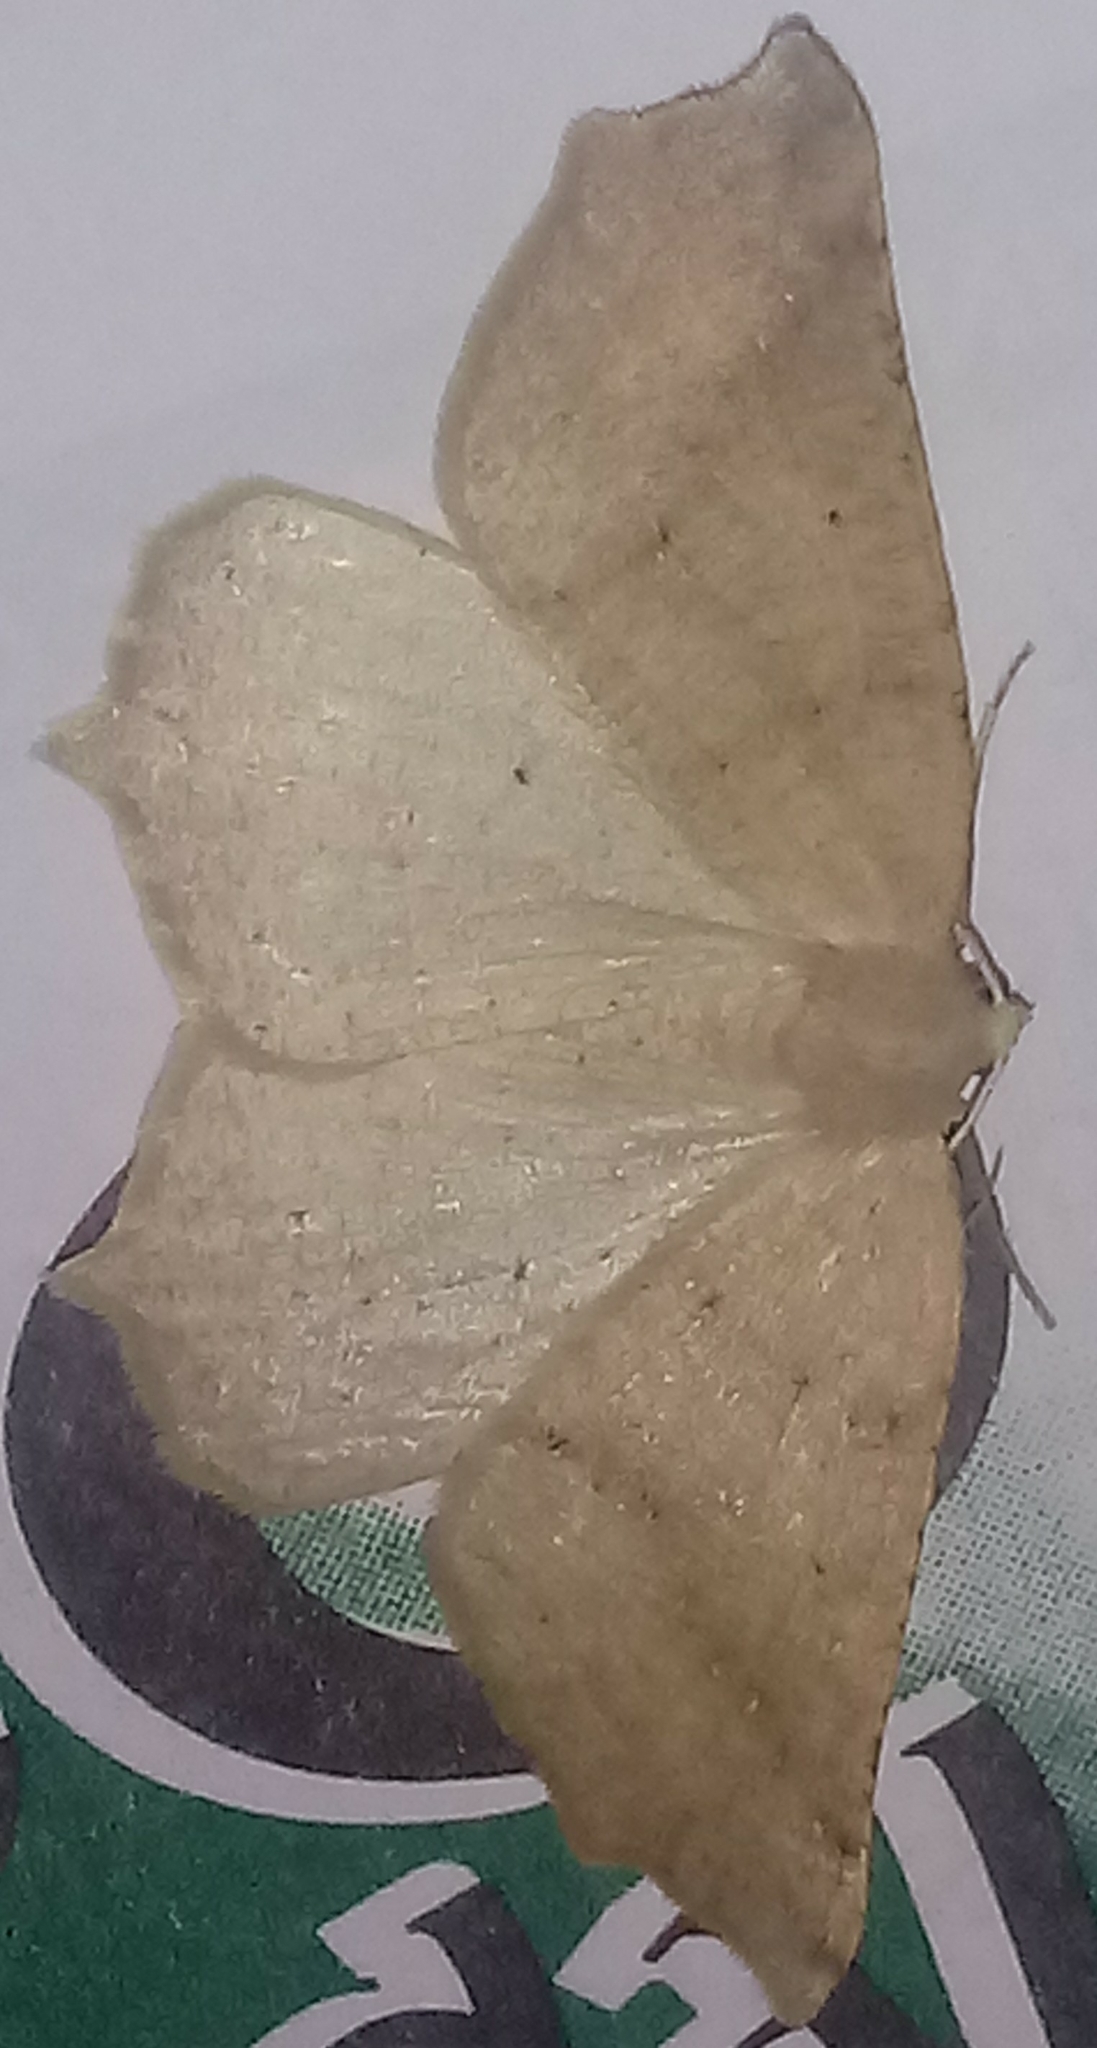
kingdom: Animalia
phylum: Arthropoda
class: Insecta
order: Lepidoptera
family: Geometridae
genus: Ennominae
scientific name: Ennominae
